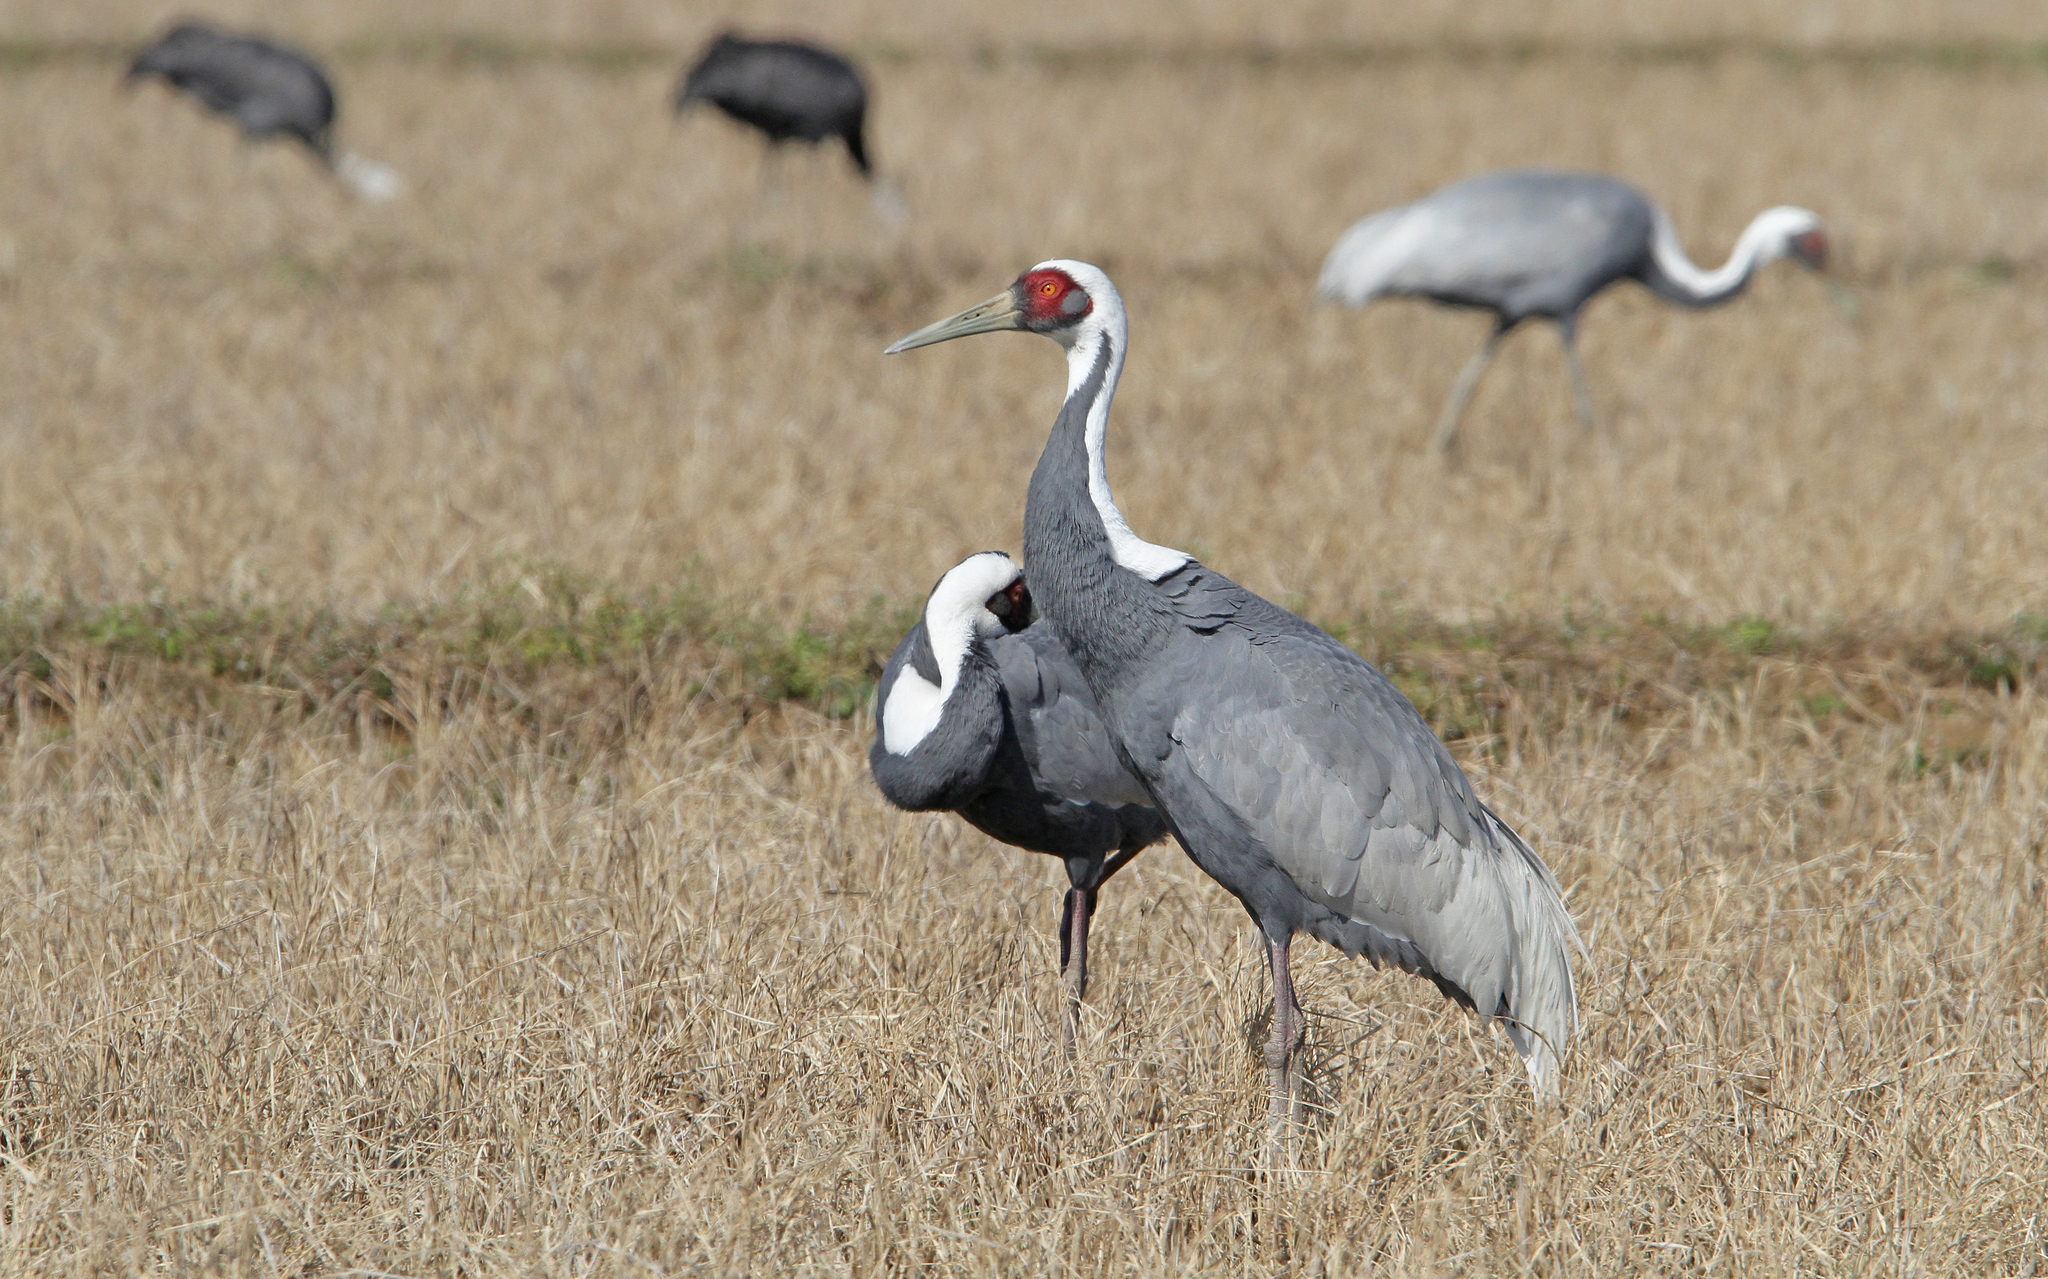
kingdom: Animalia
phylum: Chordata
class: Aves
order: Gruiformes
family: Gruidae
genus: Grus
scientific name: Grus vipio
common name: White-naped crane
